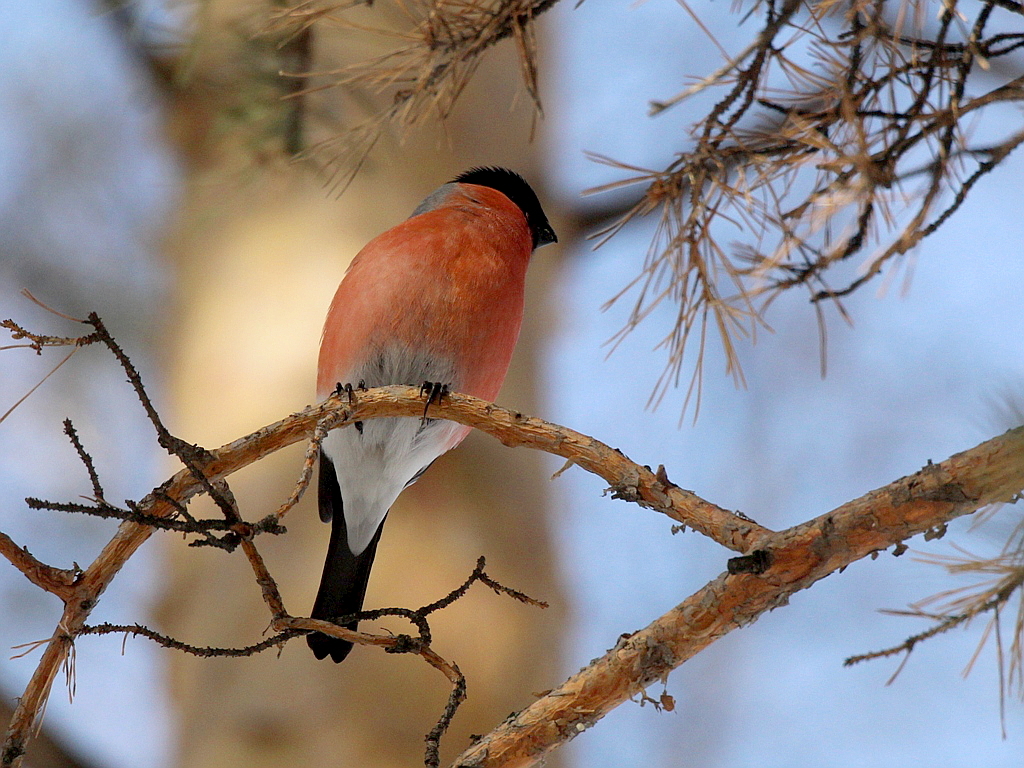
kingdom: Animalia
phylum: Chordata
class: Aves
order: Passeriformes
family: Fringillidae
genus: Pyrrhula
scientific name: Pyrrhula pyrrhula
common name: Eurasian bullfinch
